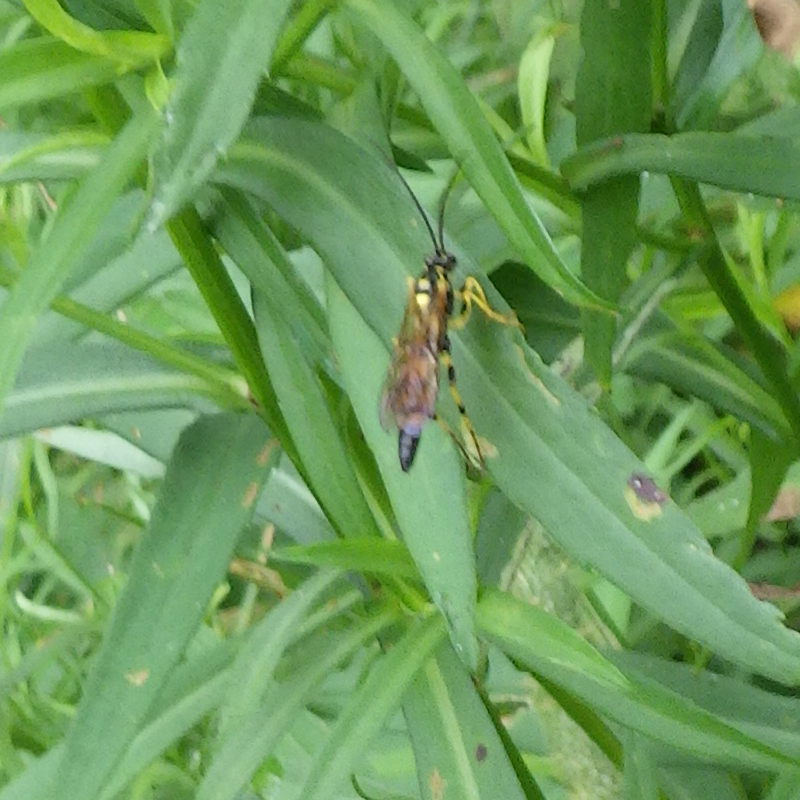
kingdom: Animalia
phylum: Arthropoda
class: Insecta
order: Hymenoptera
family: Ichneumonidae
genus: Ichneumon
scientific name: Ichneumon annulatorius
